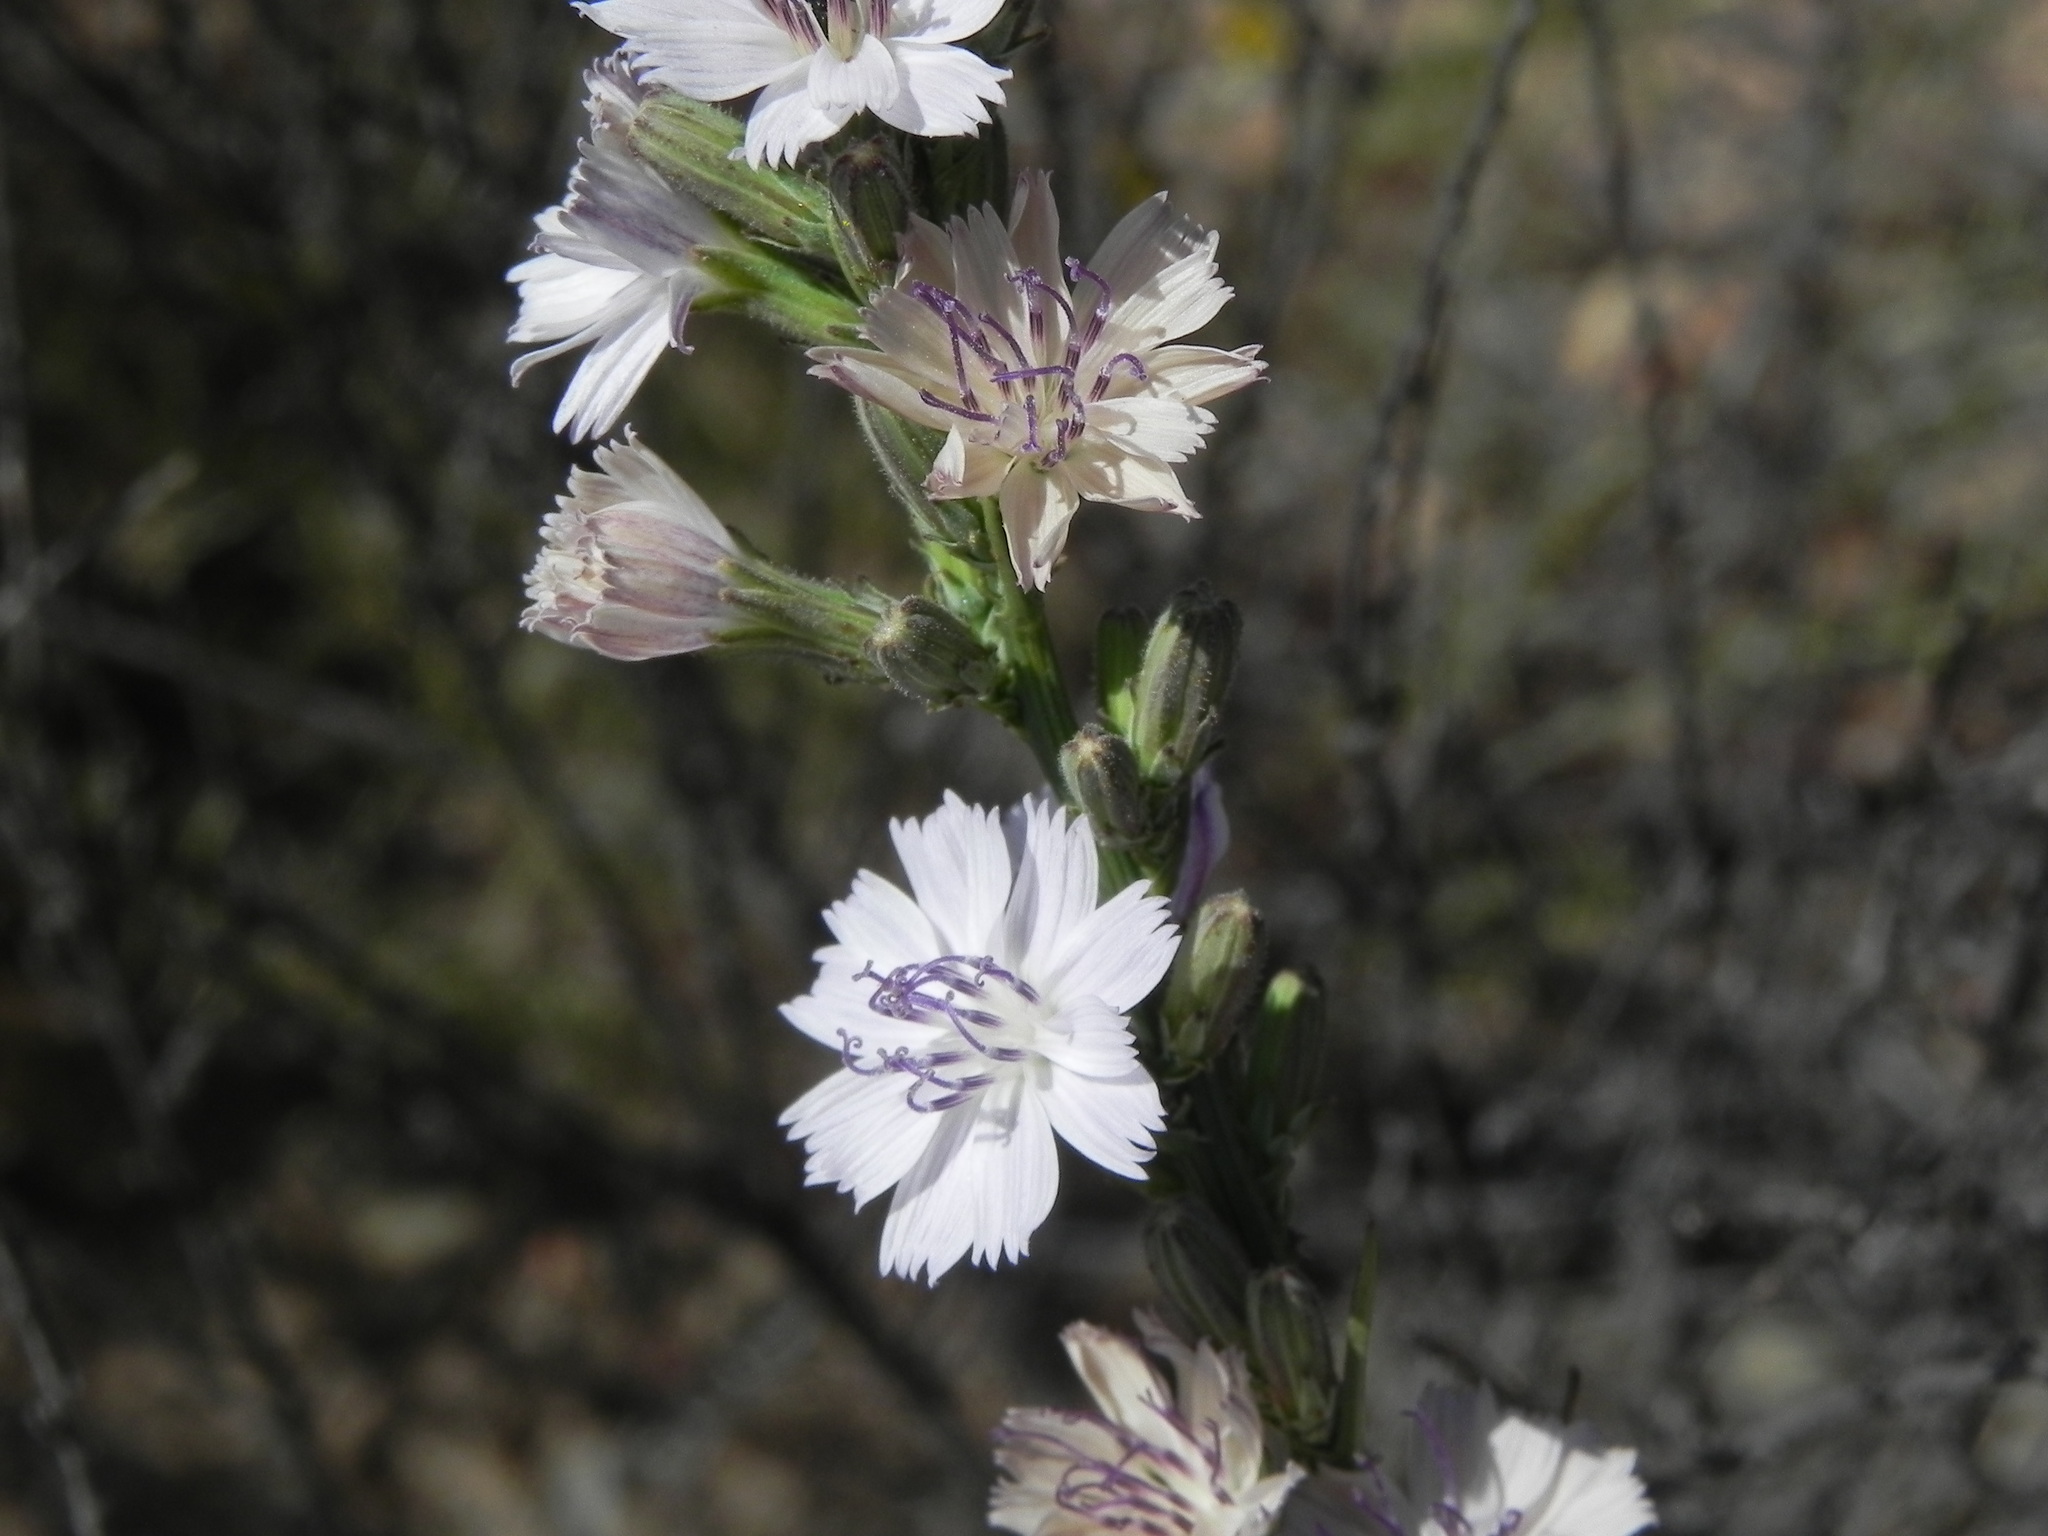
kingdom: Plantae
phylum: Tracheophyta
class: Magnoliopsida
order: Asterales
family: Asteraceae
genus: Stephanomeria
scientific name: Stephanomeria diegensis
